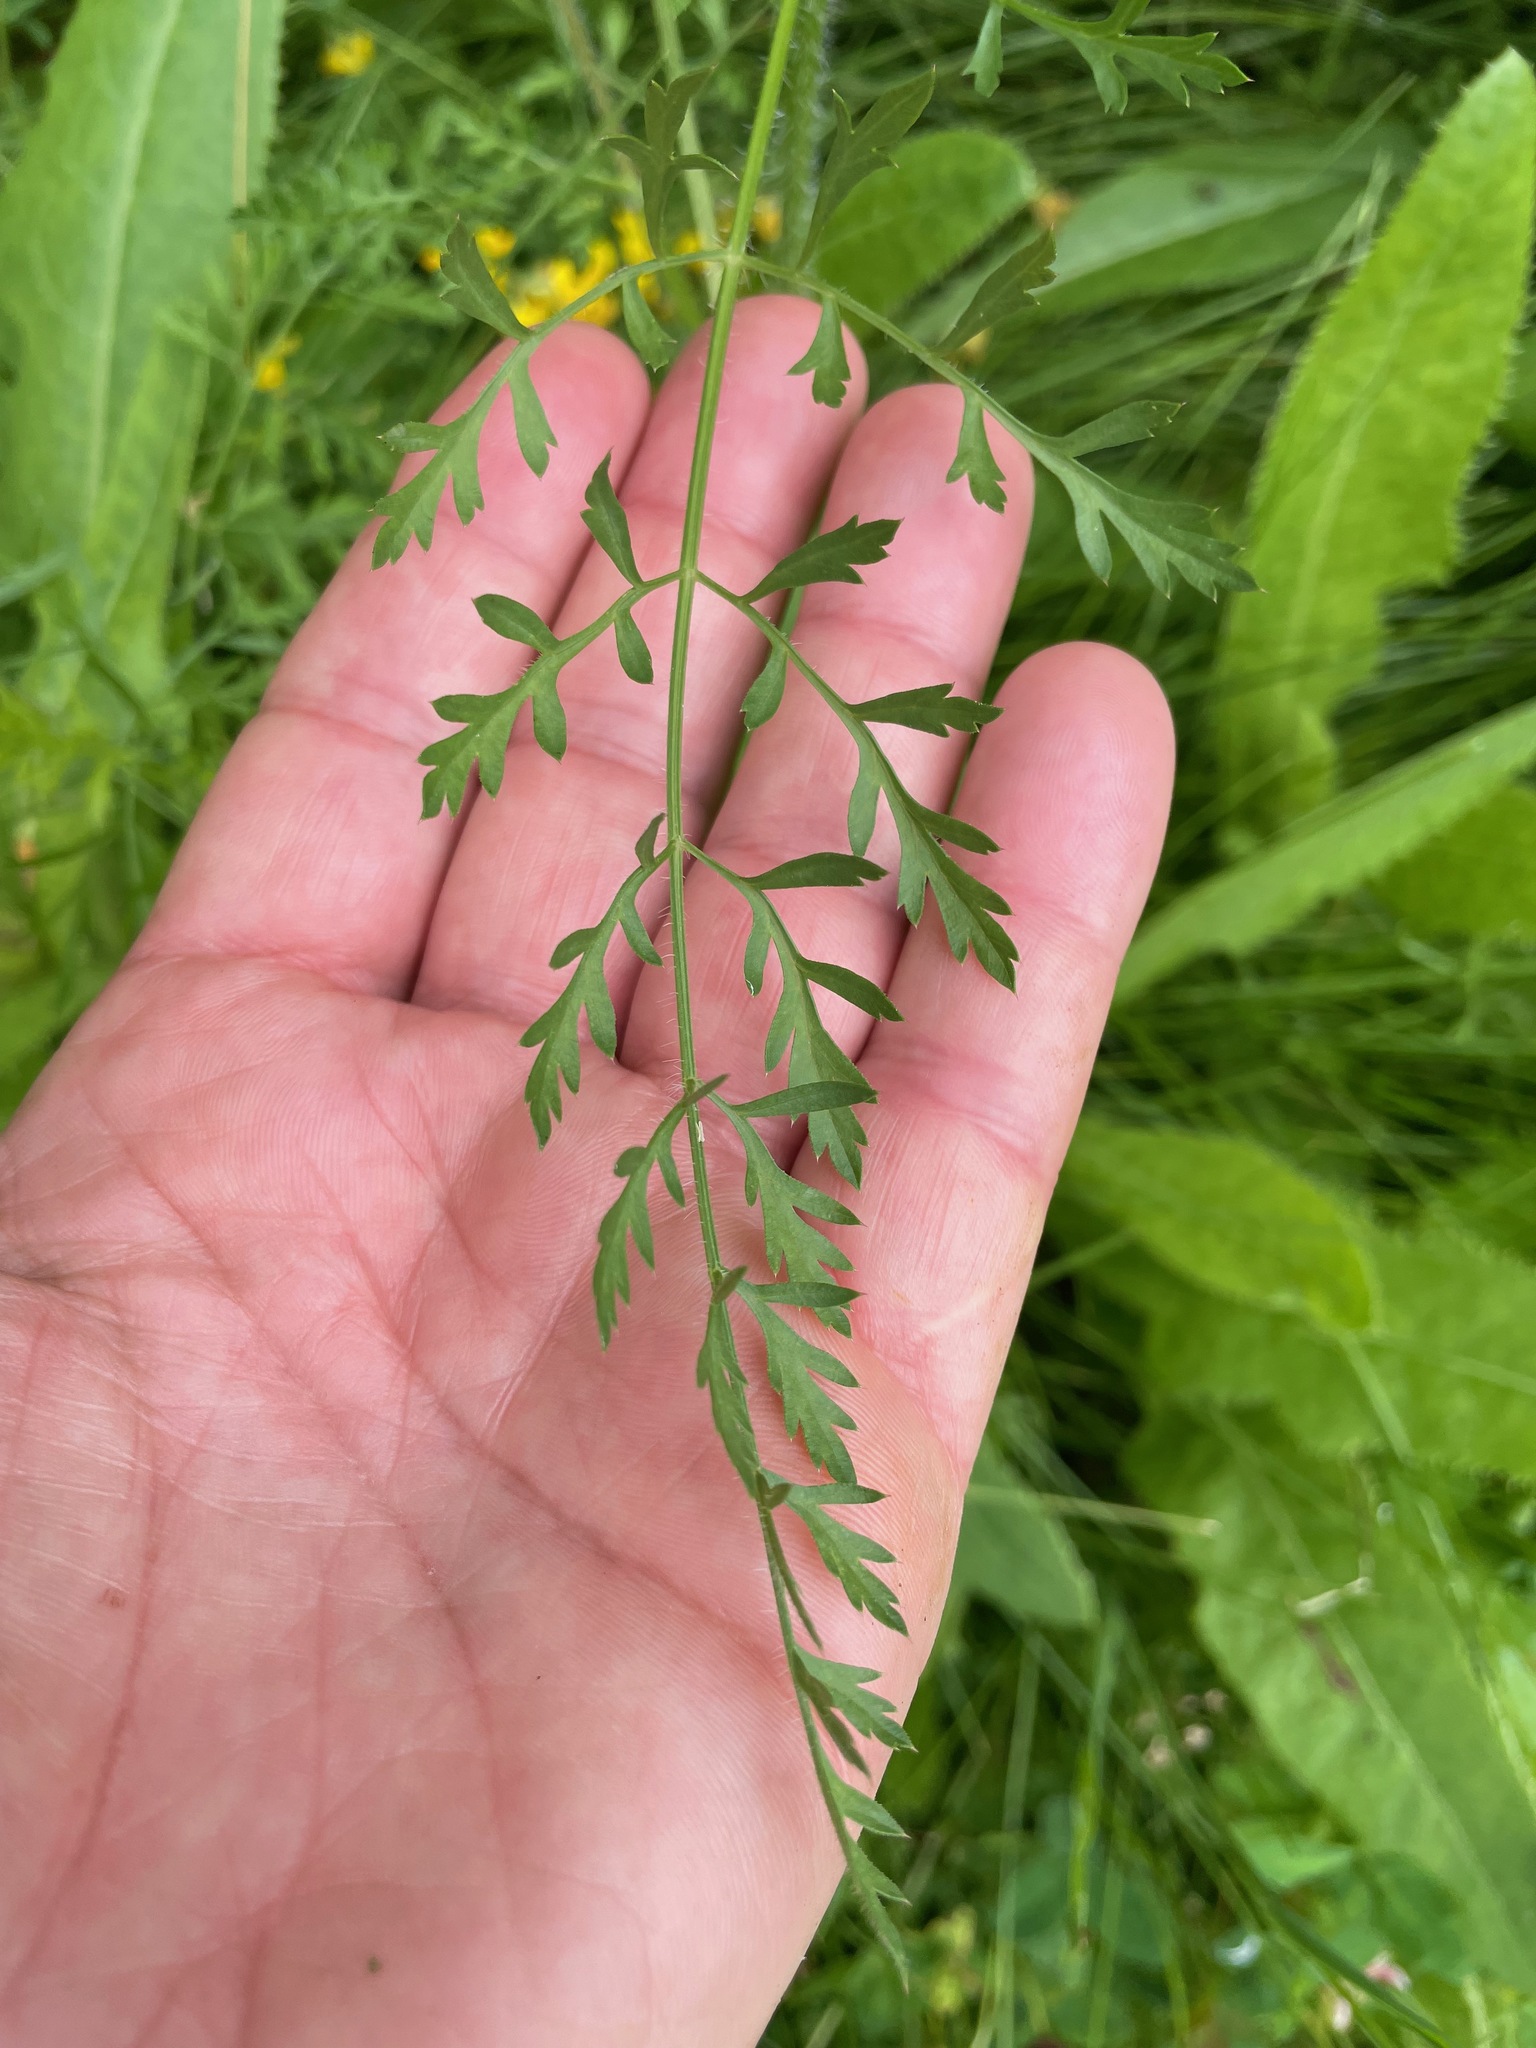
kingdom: Plantae
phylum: Tracheophyta
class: Magnoliopsida
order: Apiales
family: Apiaceae
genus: Daucus
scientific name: Daucus carota
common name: Wild carrot
